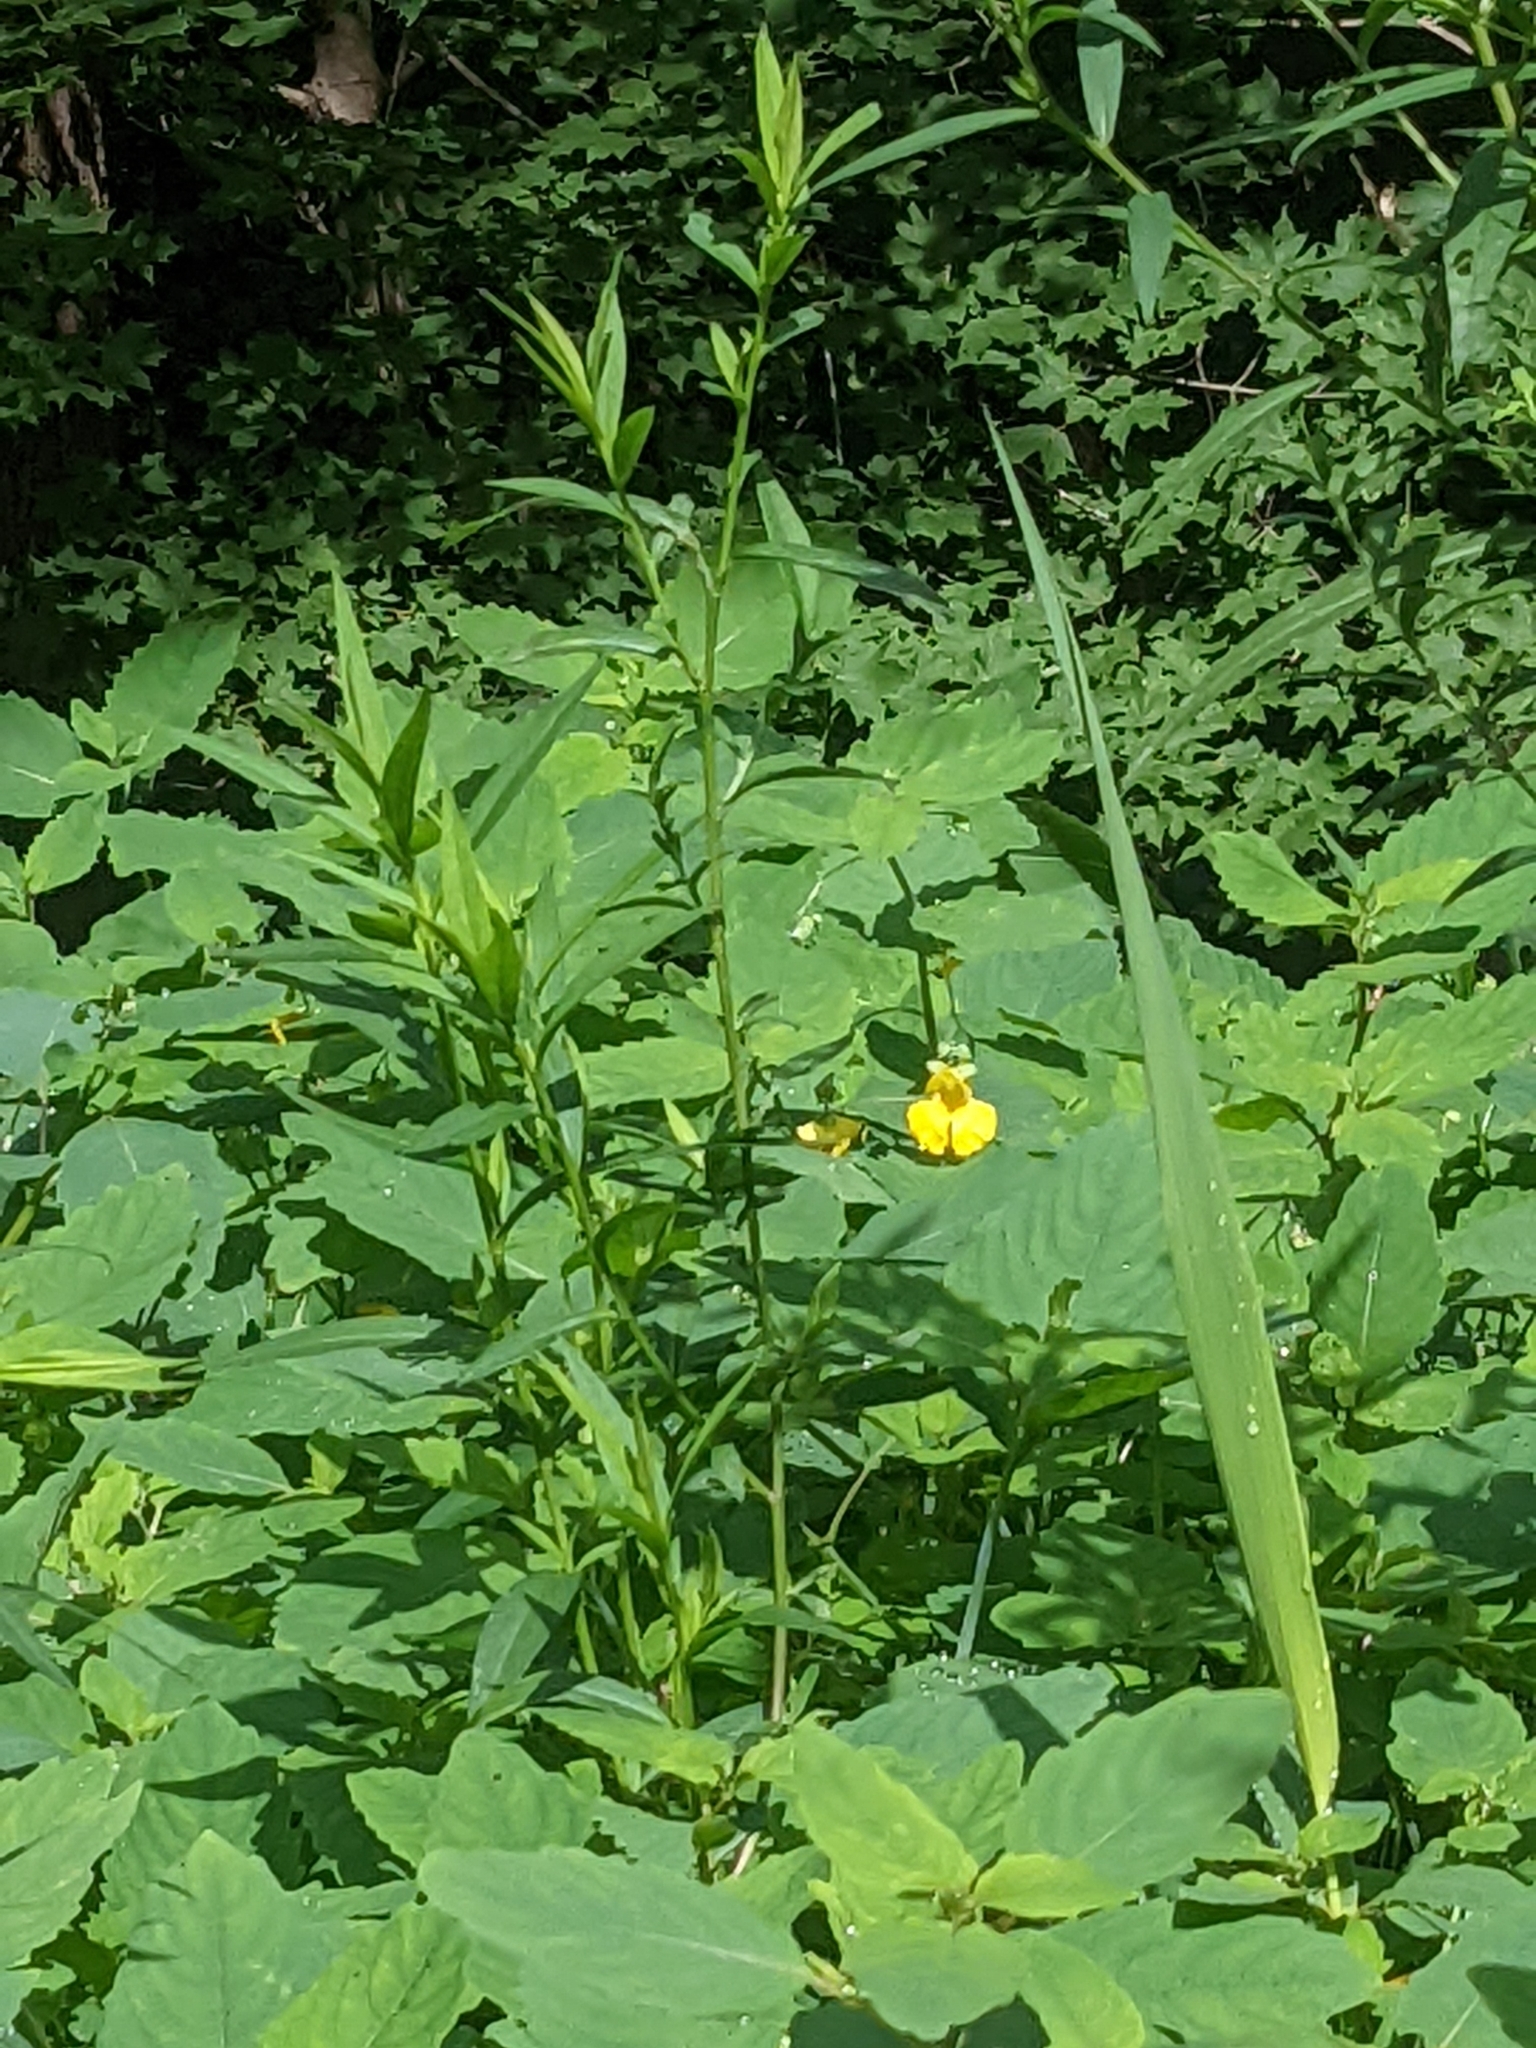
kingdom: Plantae
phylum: Tracheophyta
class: Magnoliopsida
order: Ericales
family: Balsaminaceae
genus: Impatiens
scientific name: Impatiens pallida
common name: Pale snapweed
